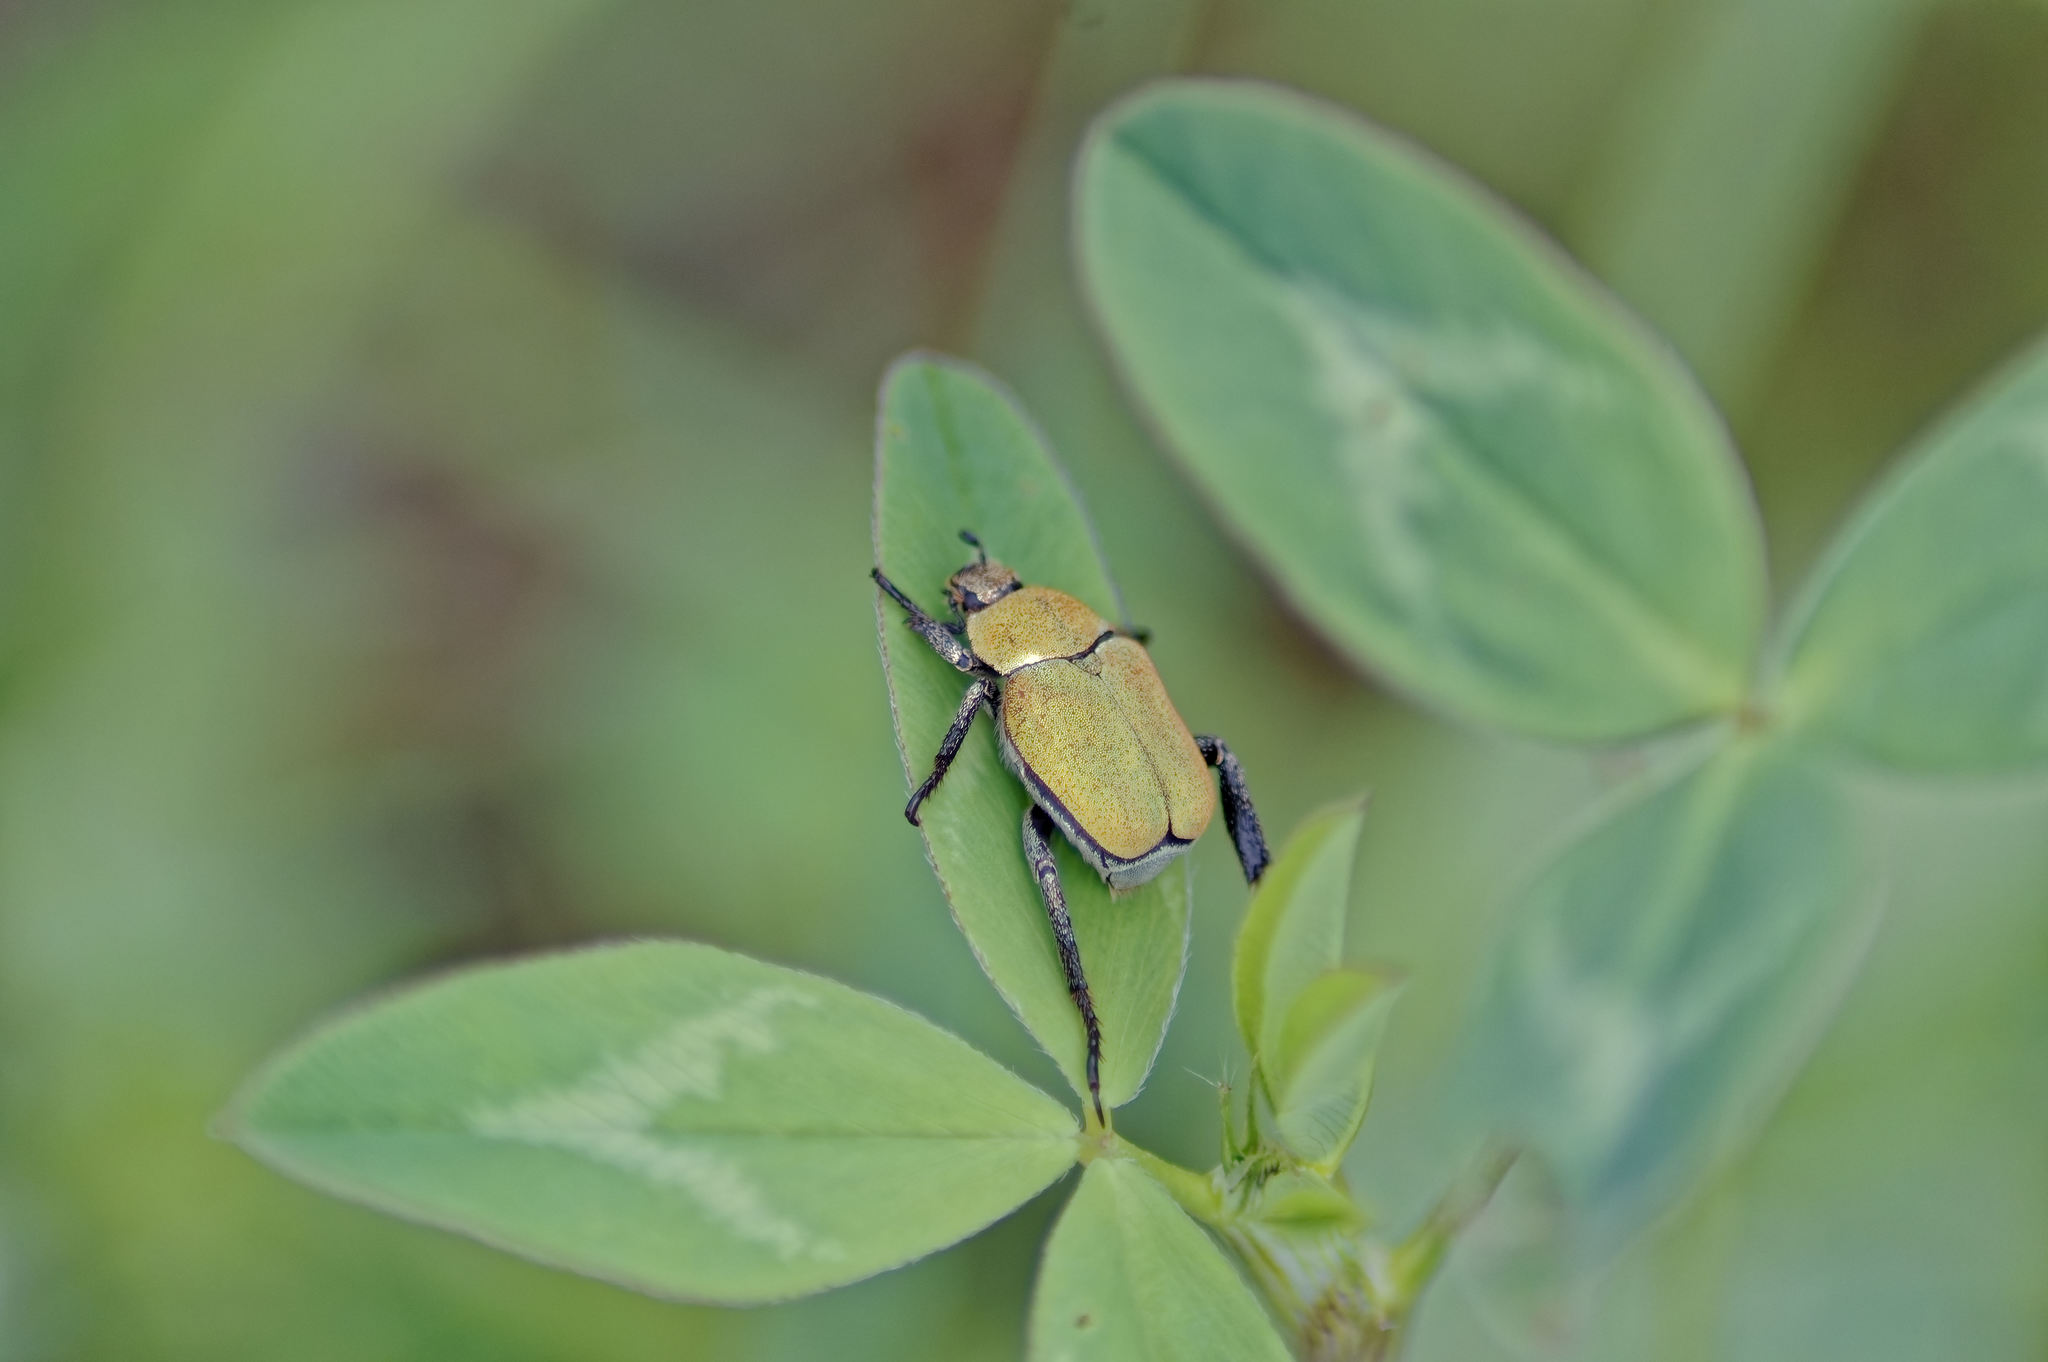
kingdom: Animalia
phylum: Arthropoda
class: Insecta
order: Coleoptera
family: Scarabaeidae
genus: Hoplia
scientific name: Hoplia argentea
